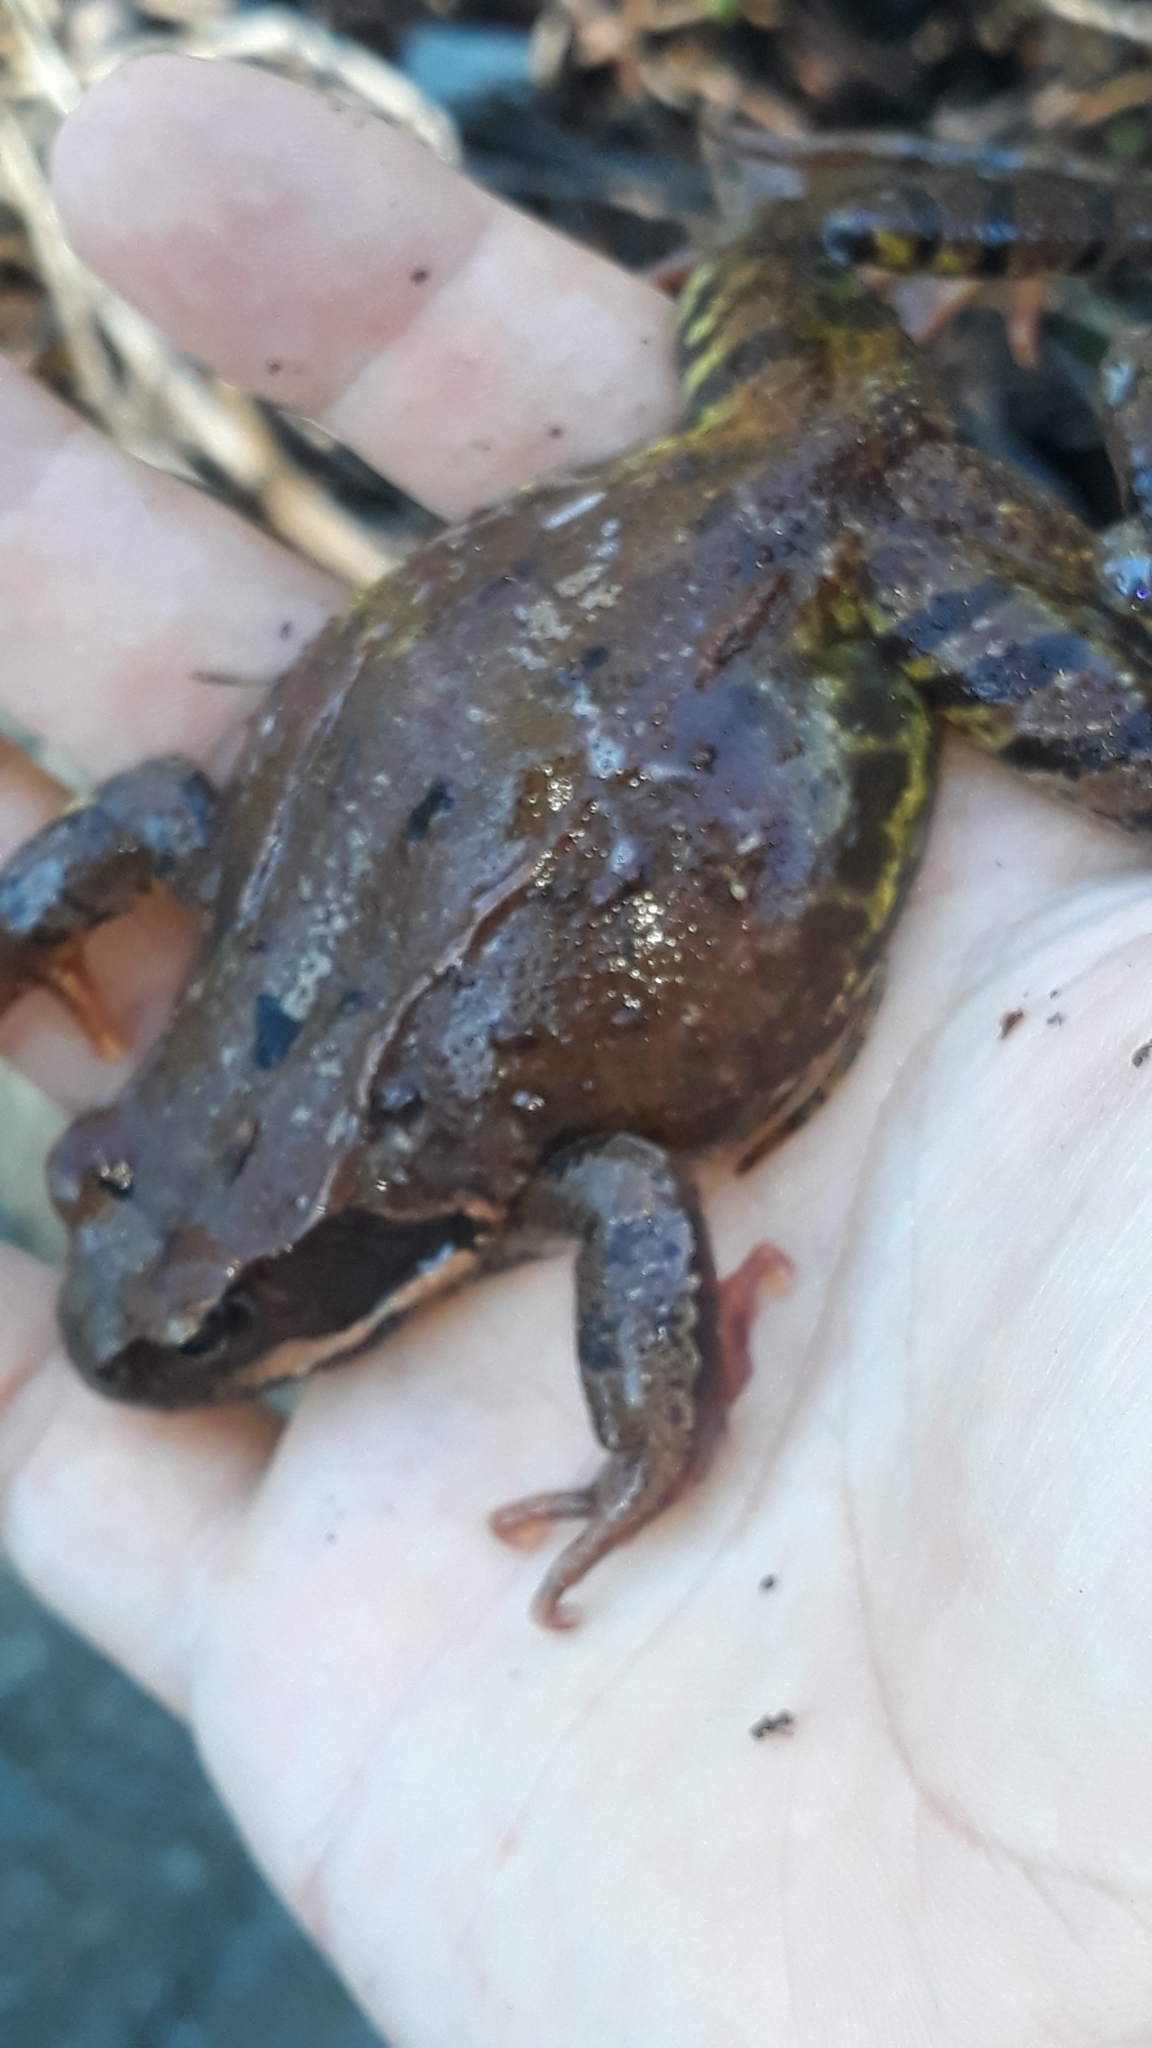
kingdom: Animalia
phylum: Chordata
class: Amphibia
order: Anura
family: Ranidae
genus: Rana
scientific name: Rana temporaria
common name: Common frog
